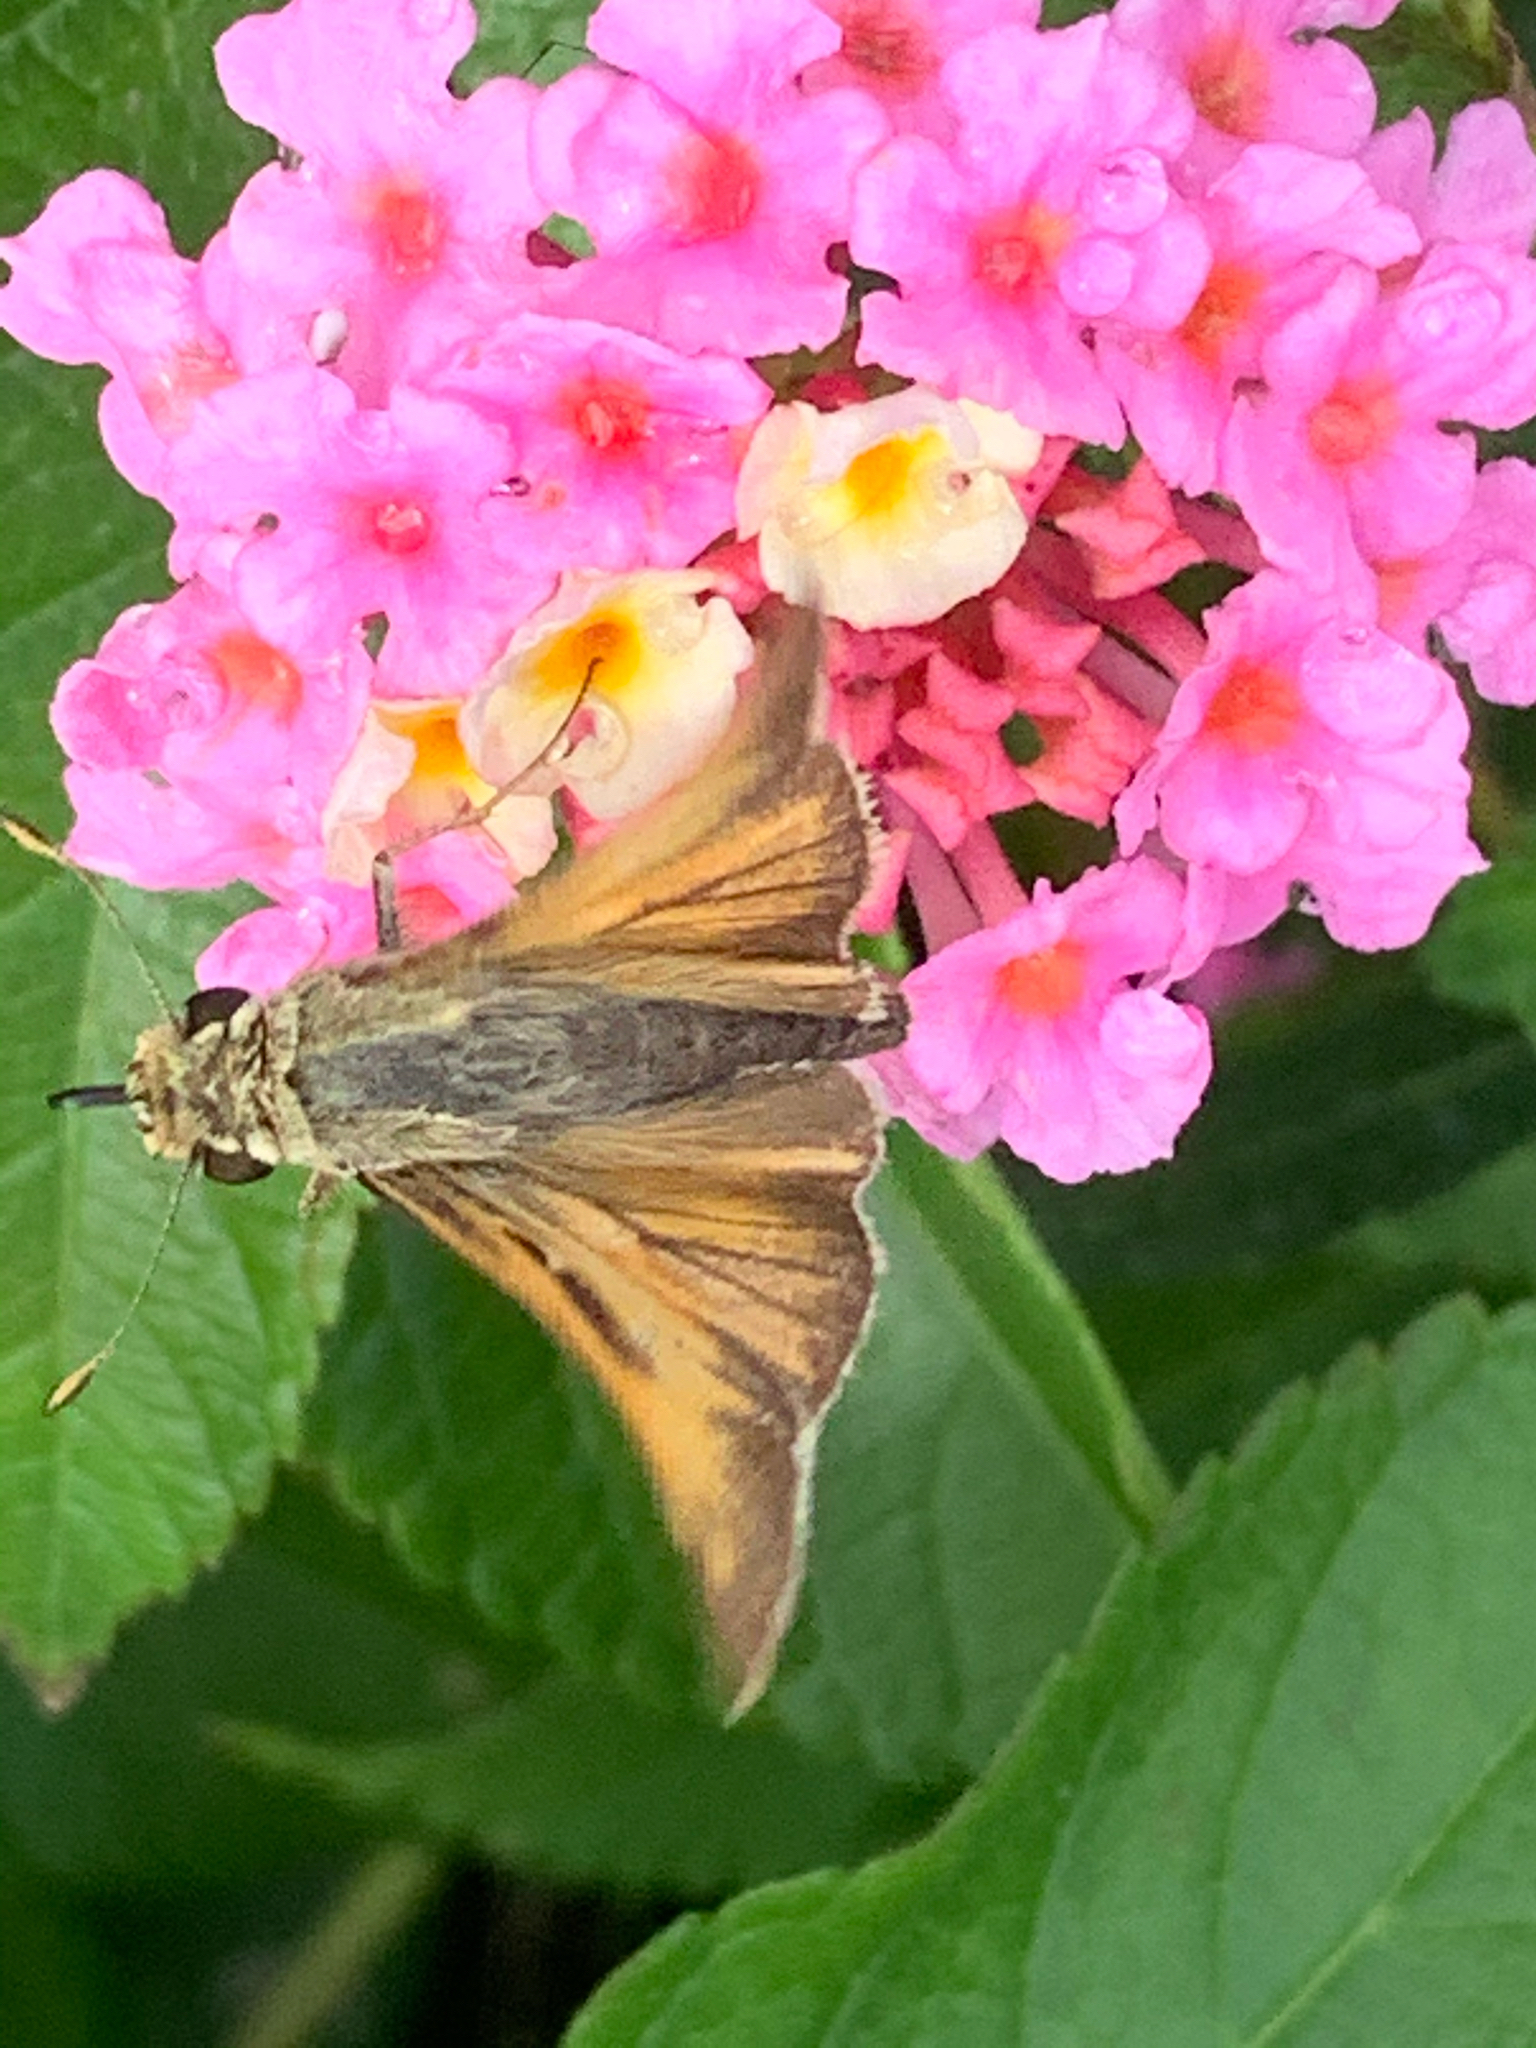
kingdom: Animalia
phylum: Arthropoda
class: Insecta
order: Lepidoptera
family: Hesperiidae
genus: Atalopedes
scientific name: Atalopedes
